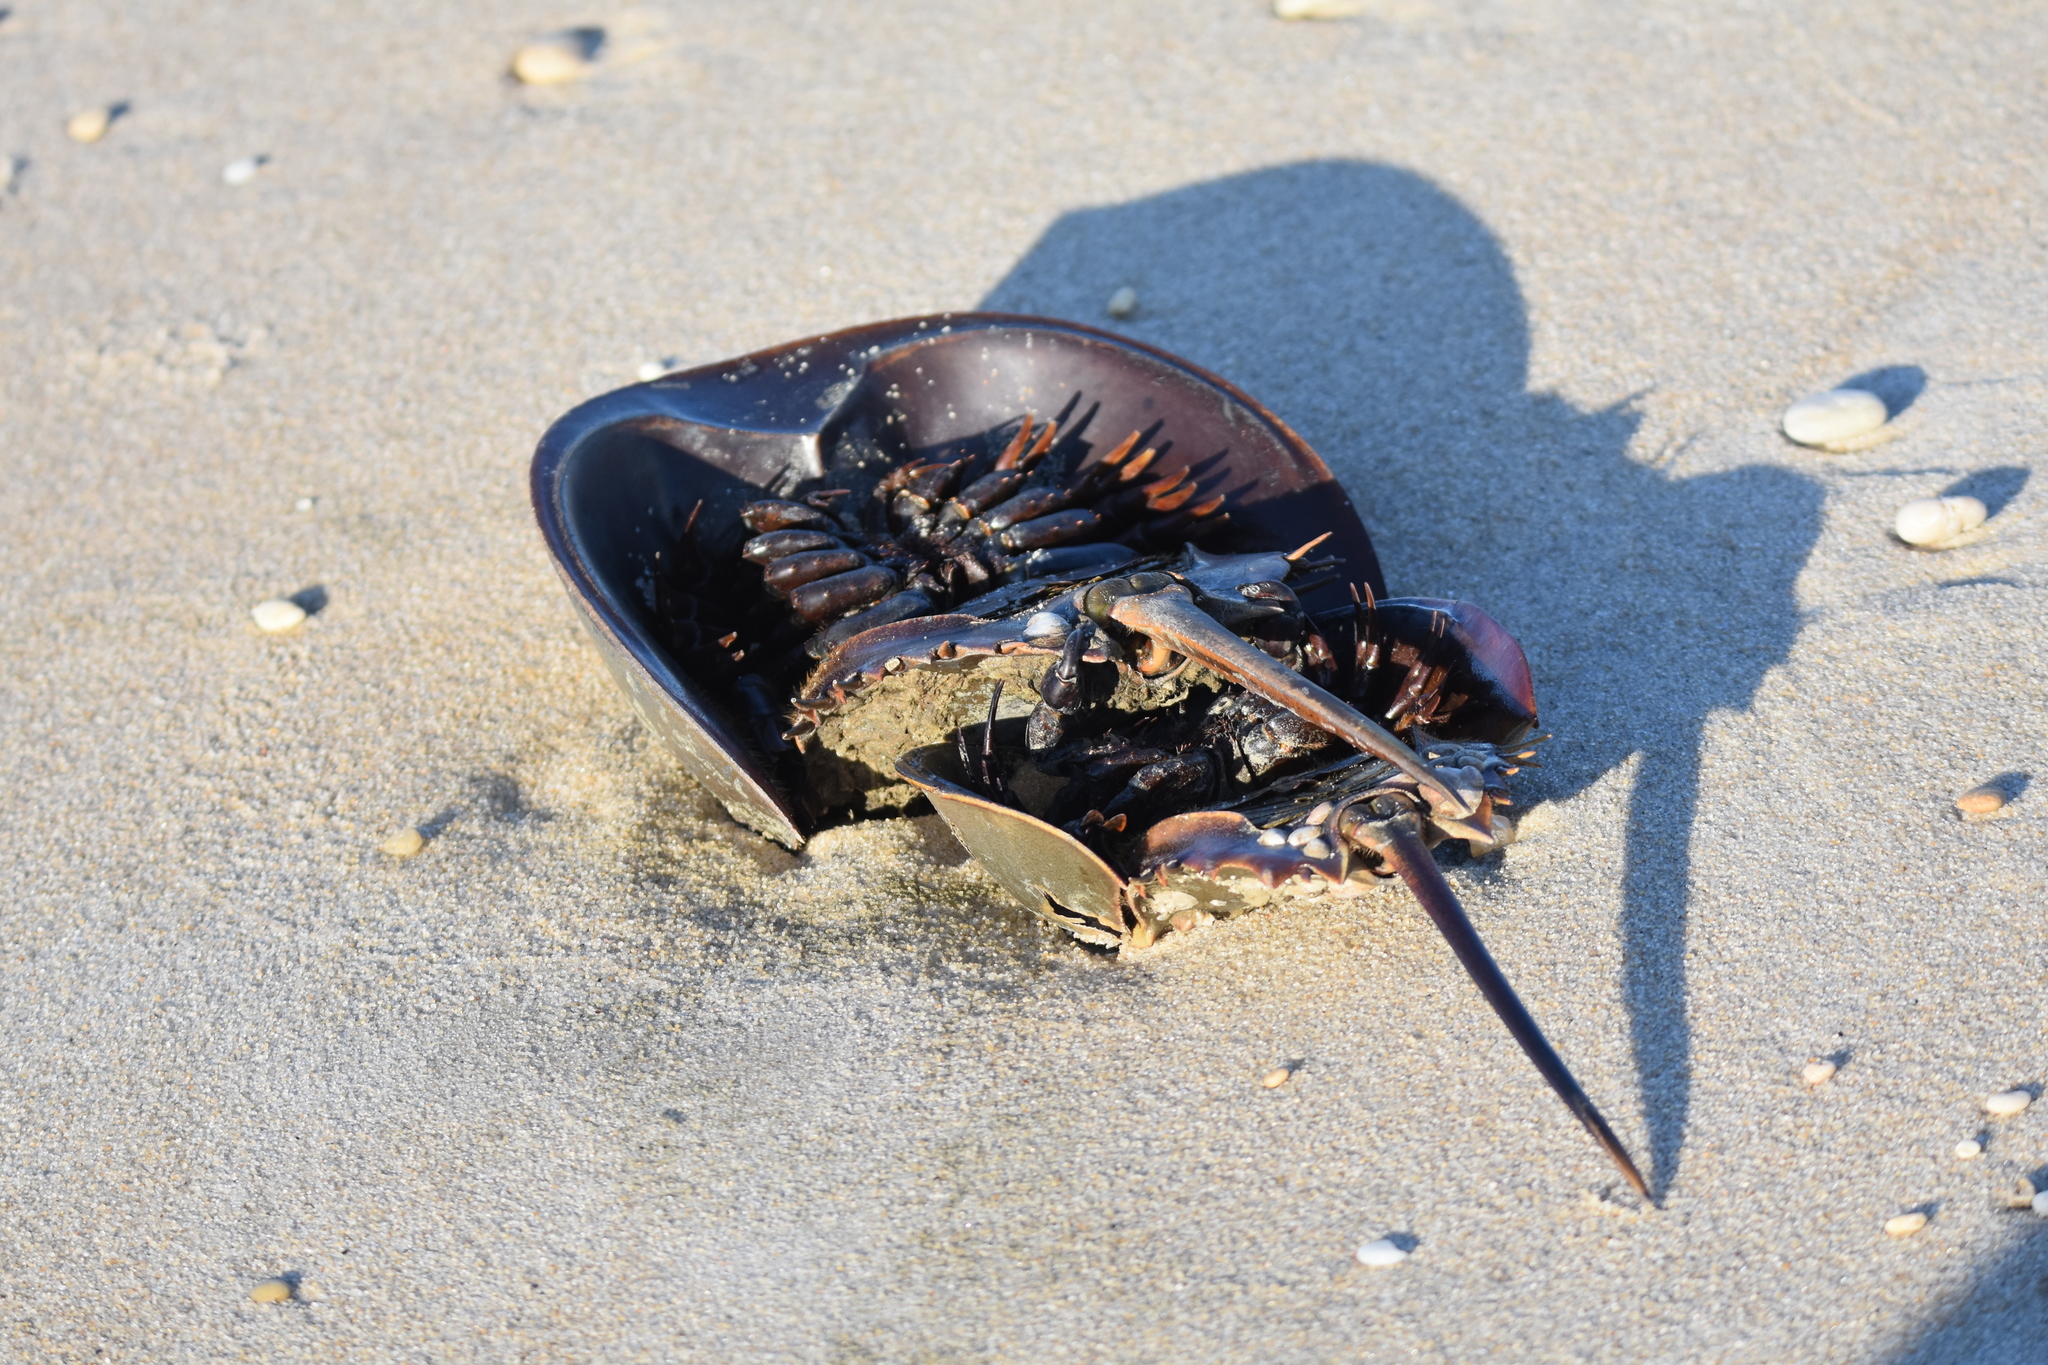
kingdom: Animalia
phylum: Arthropoda
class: Merostomata
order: Xiphosurida
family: Limulidae
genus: Limulus
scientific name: Limulus polyphemus
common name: Horseshoe crab
